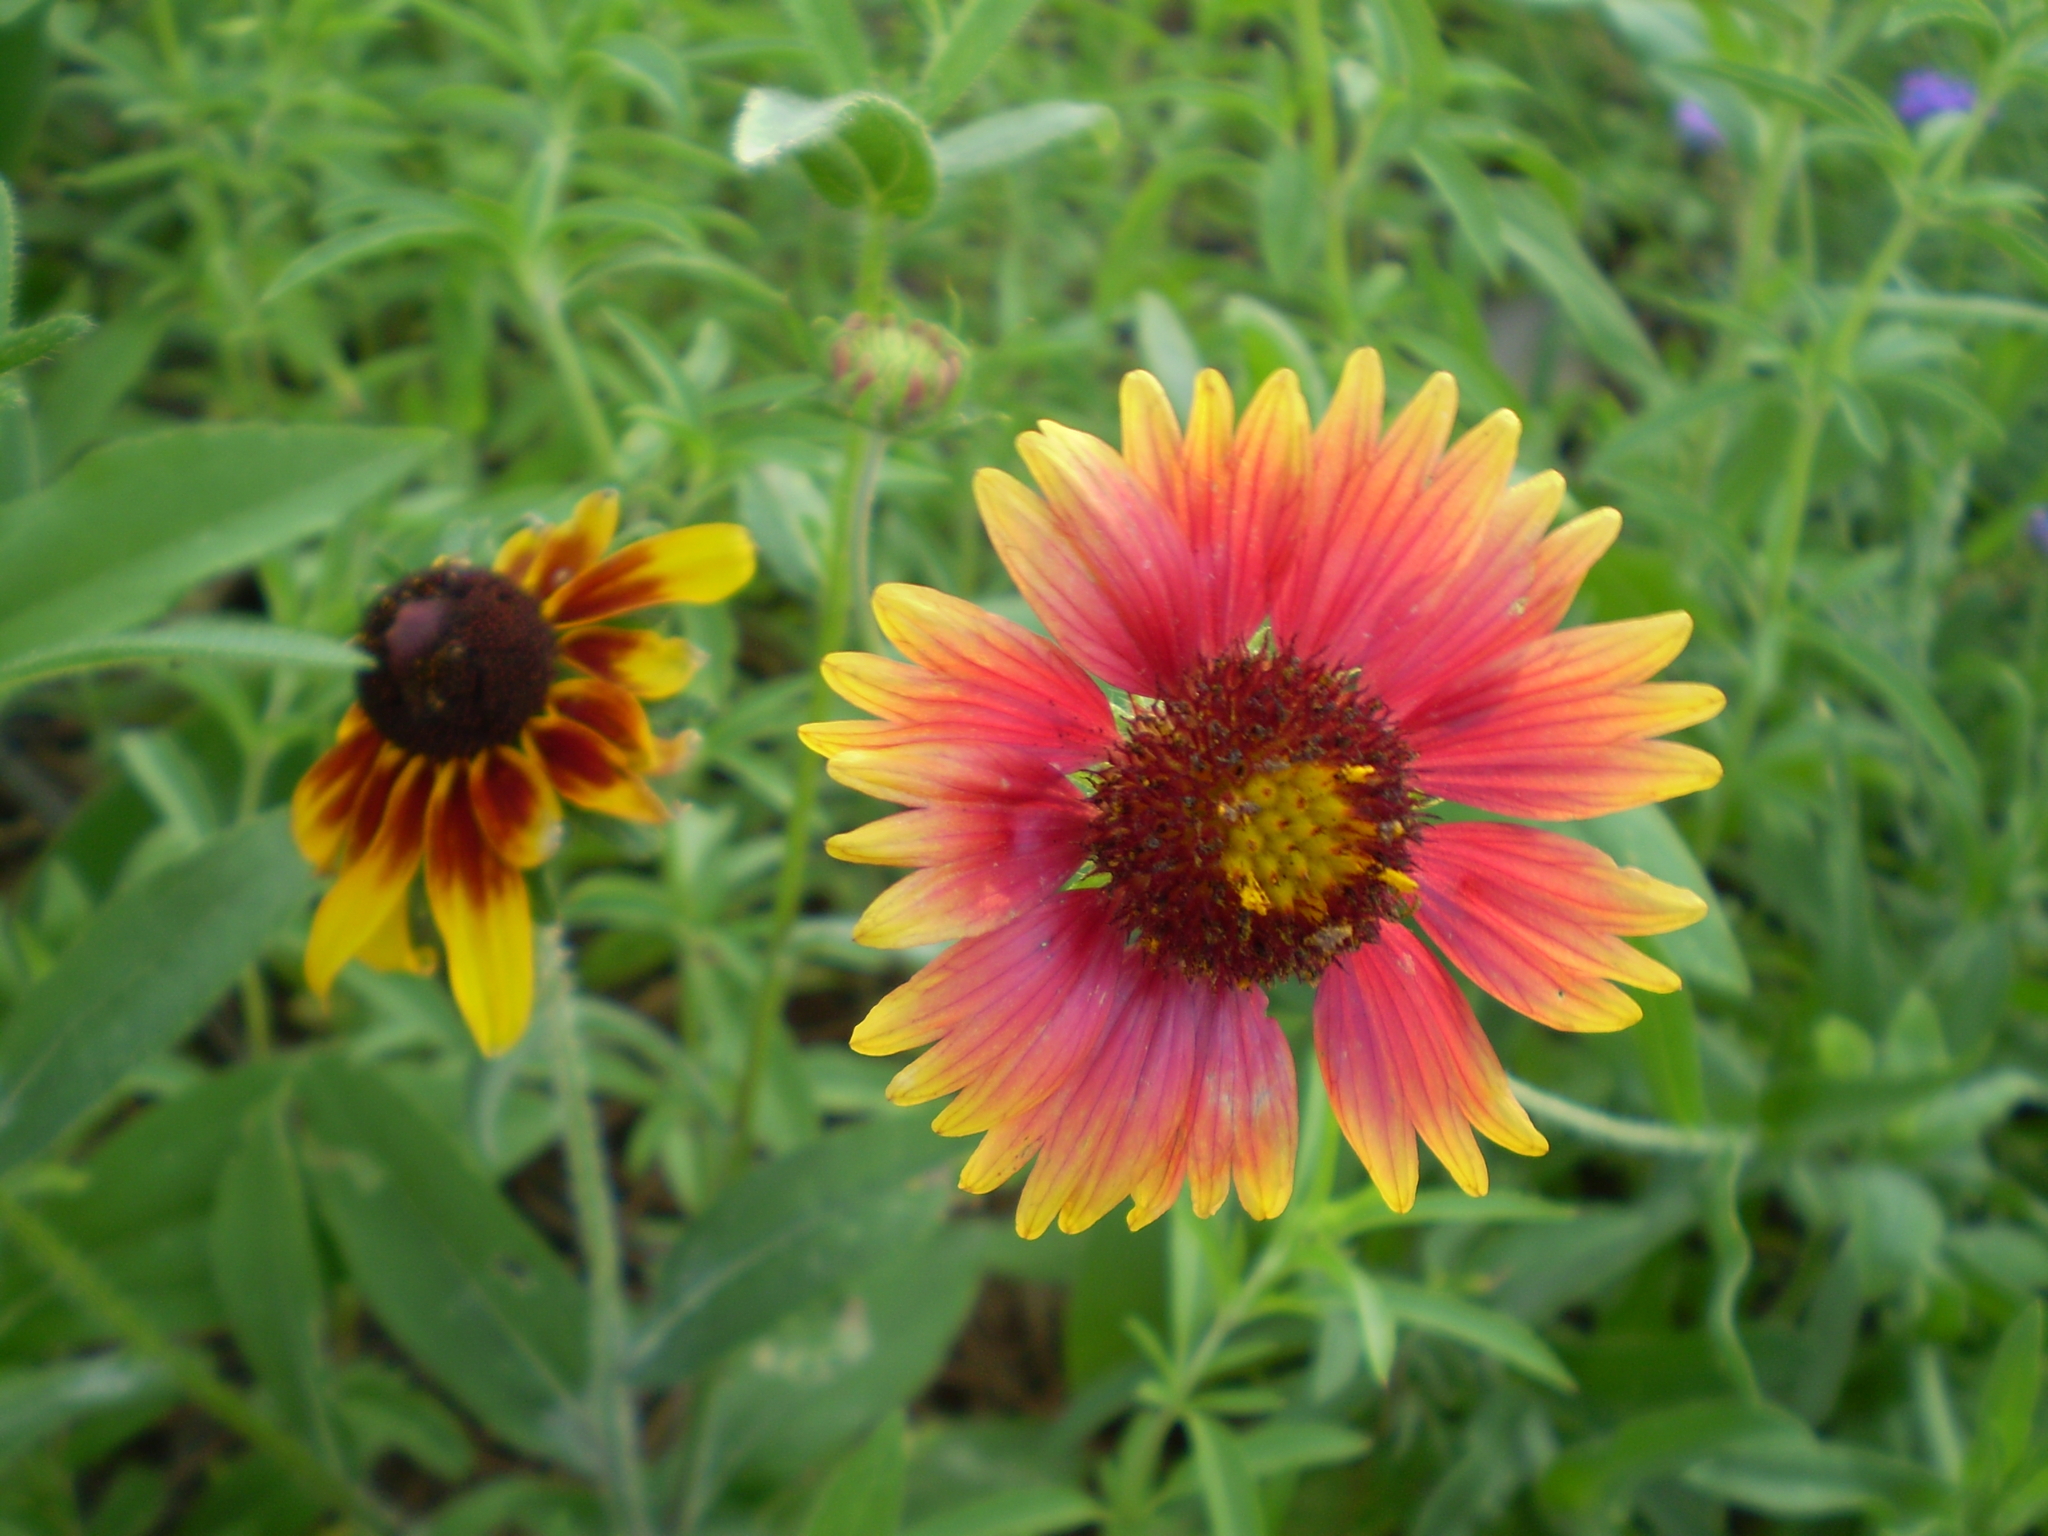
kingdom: Plantae
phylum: Tracheophyta
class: Magnoliopsida
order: Asterales
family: Asteraceae
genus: Gaillardia
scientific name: Gaillardia pulchella
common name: Firewheel
